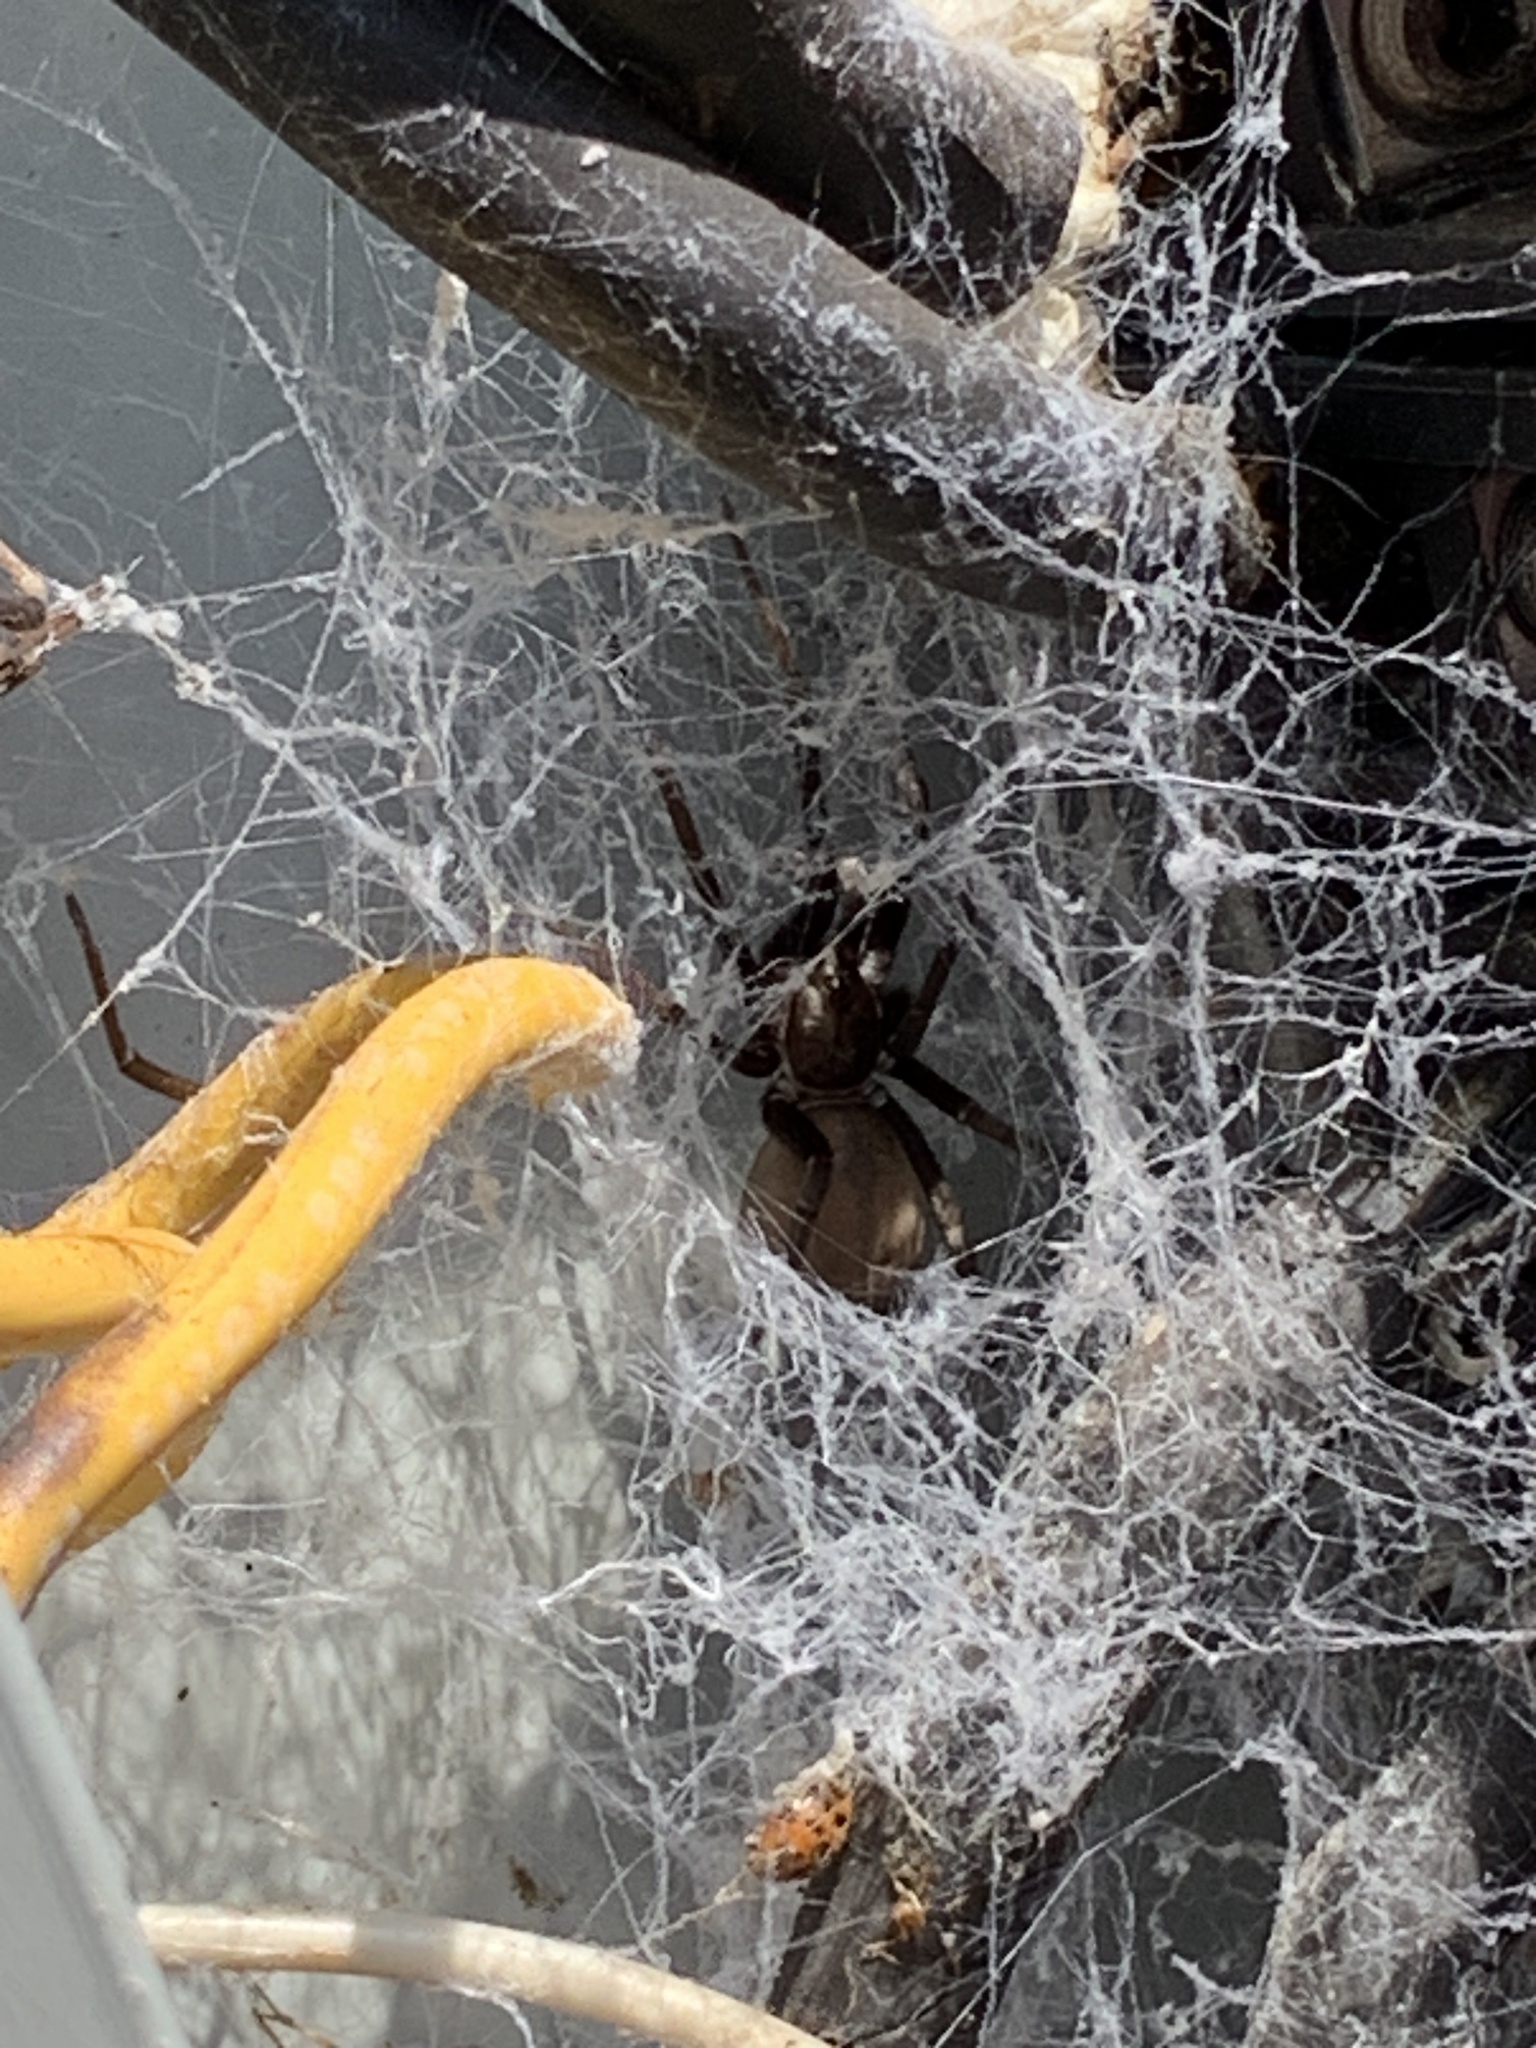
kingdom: Animalia
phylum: Arthropoda
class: Arachnida
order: Araneae
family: Filistatidae
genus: Kukulcania
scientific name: Kukulcania hibernalis
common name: Crevice weaver
